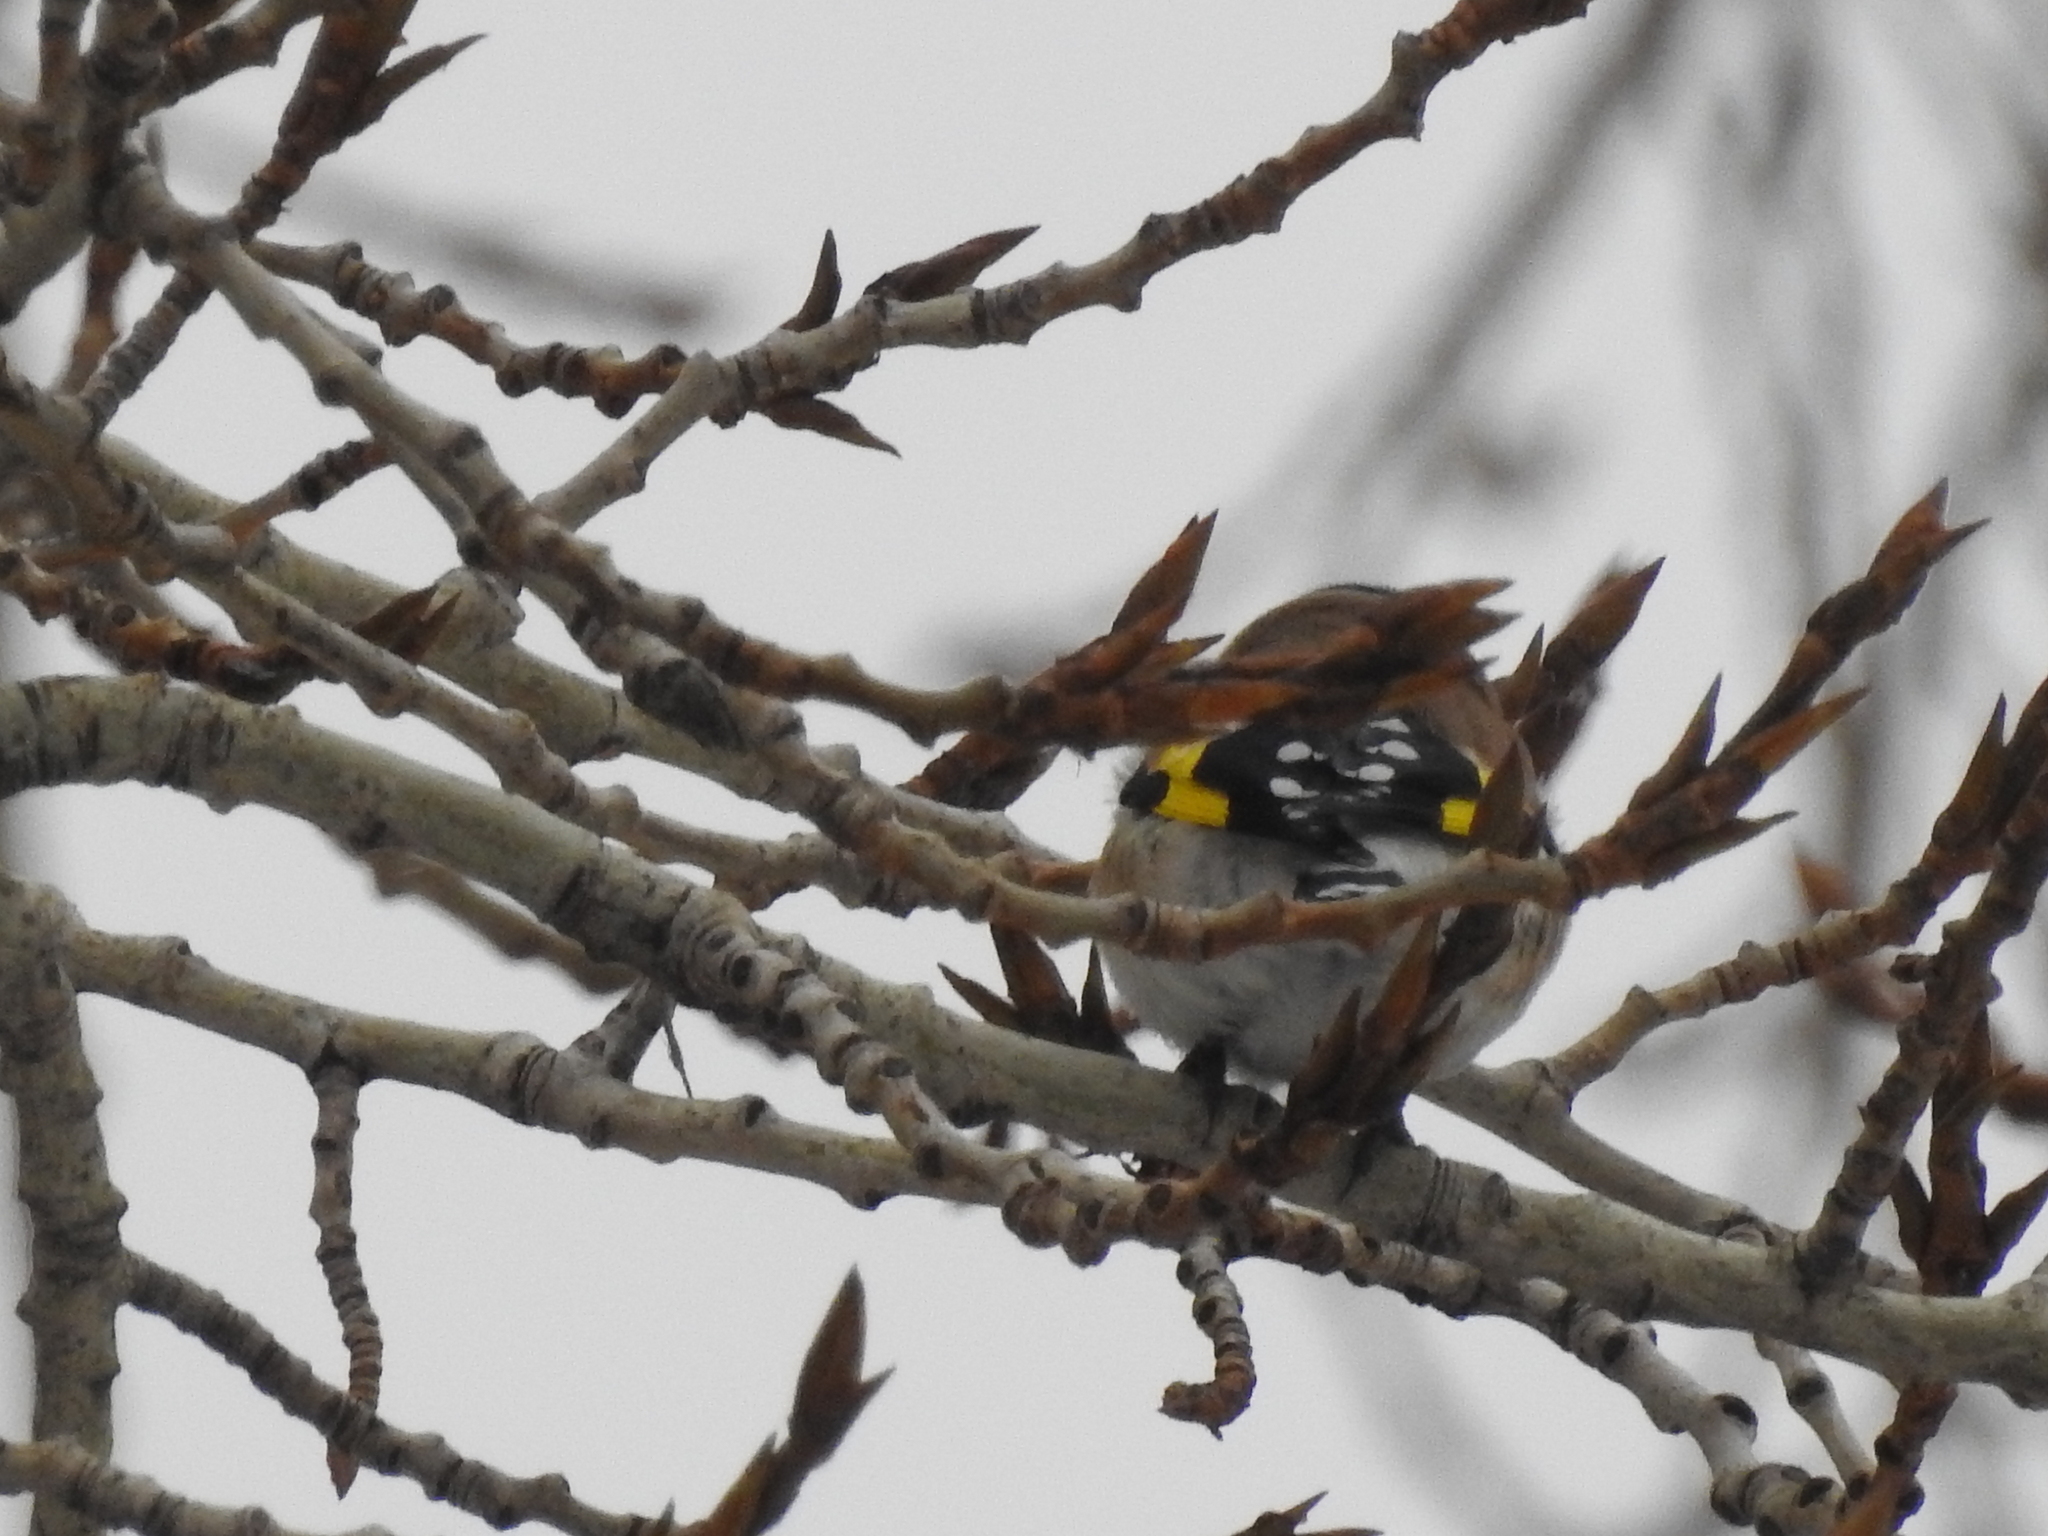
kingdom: Animalia
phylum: Chordata
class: Aves
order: Passeriformes
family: Fringillidae
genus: Carduelis
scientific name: Carduelis carduelis
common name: European goldfinch
